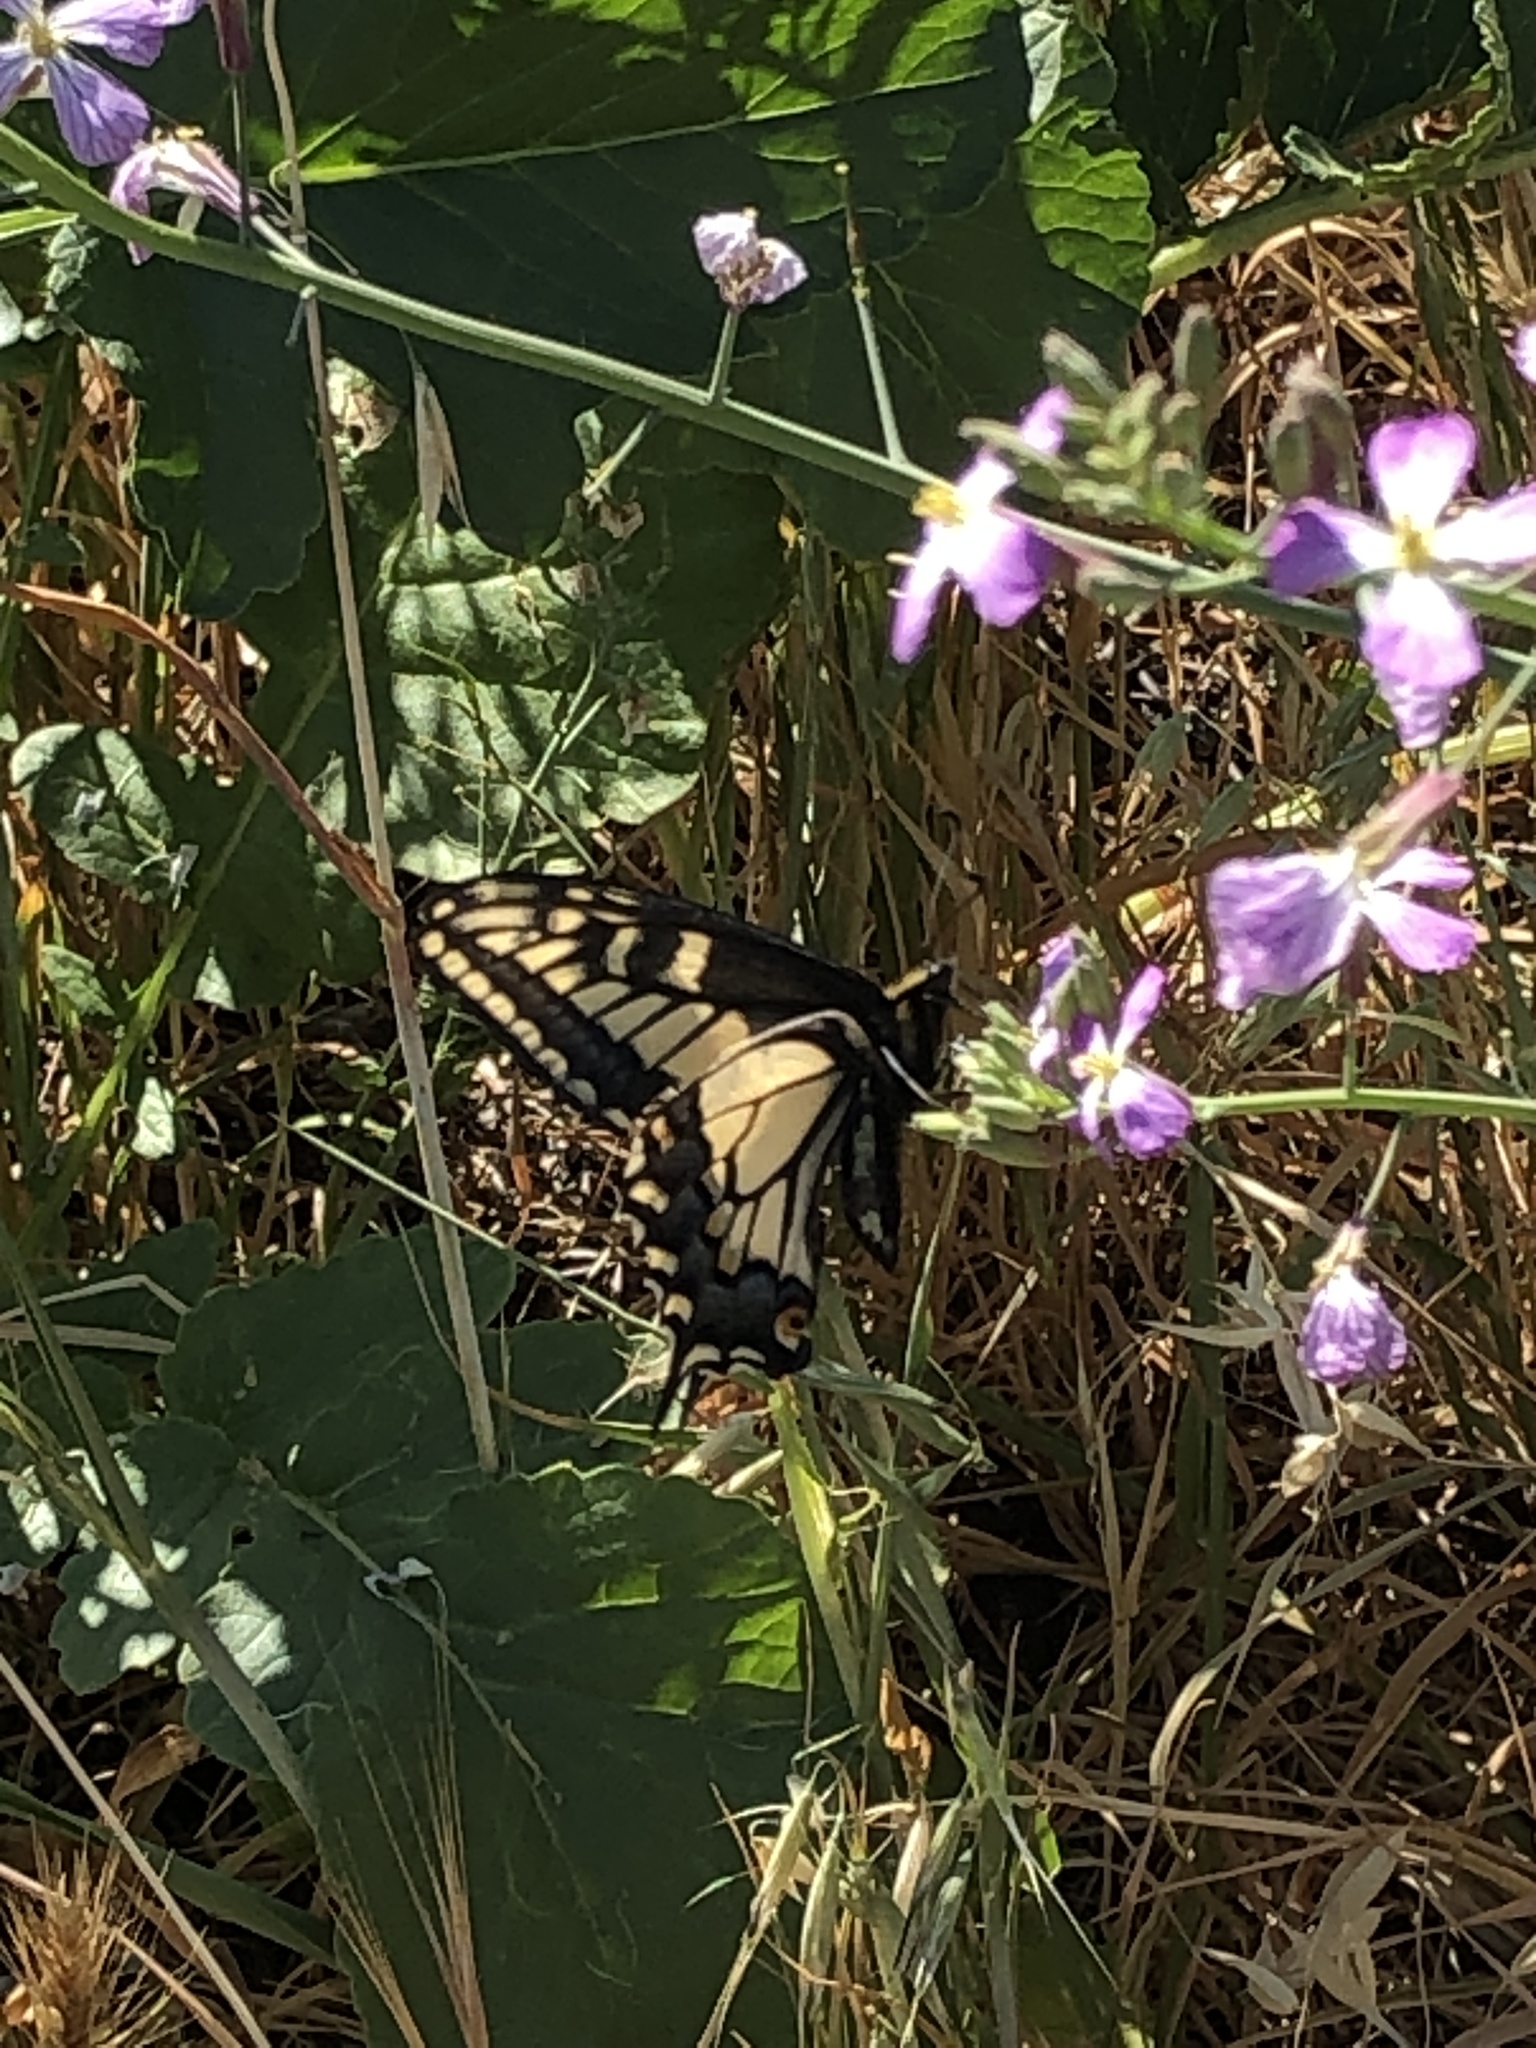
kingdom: Animalia
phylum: Arthropoda
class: Insecta
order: Lepidoptera
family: Papilionidae
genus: Papilio
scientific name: Papilio zelicaon
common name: Anise swallowtail
